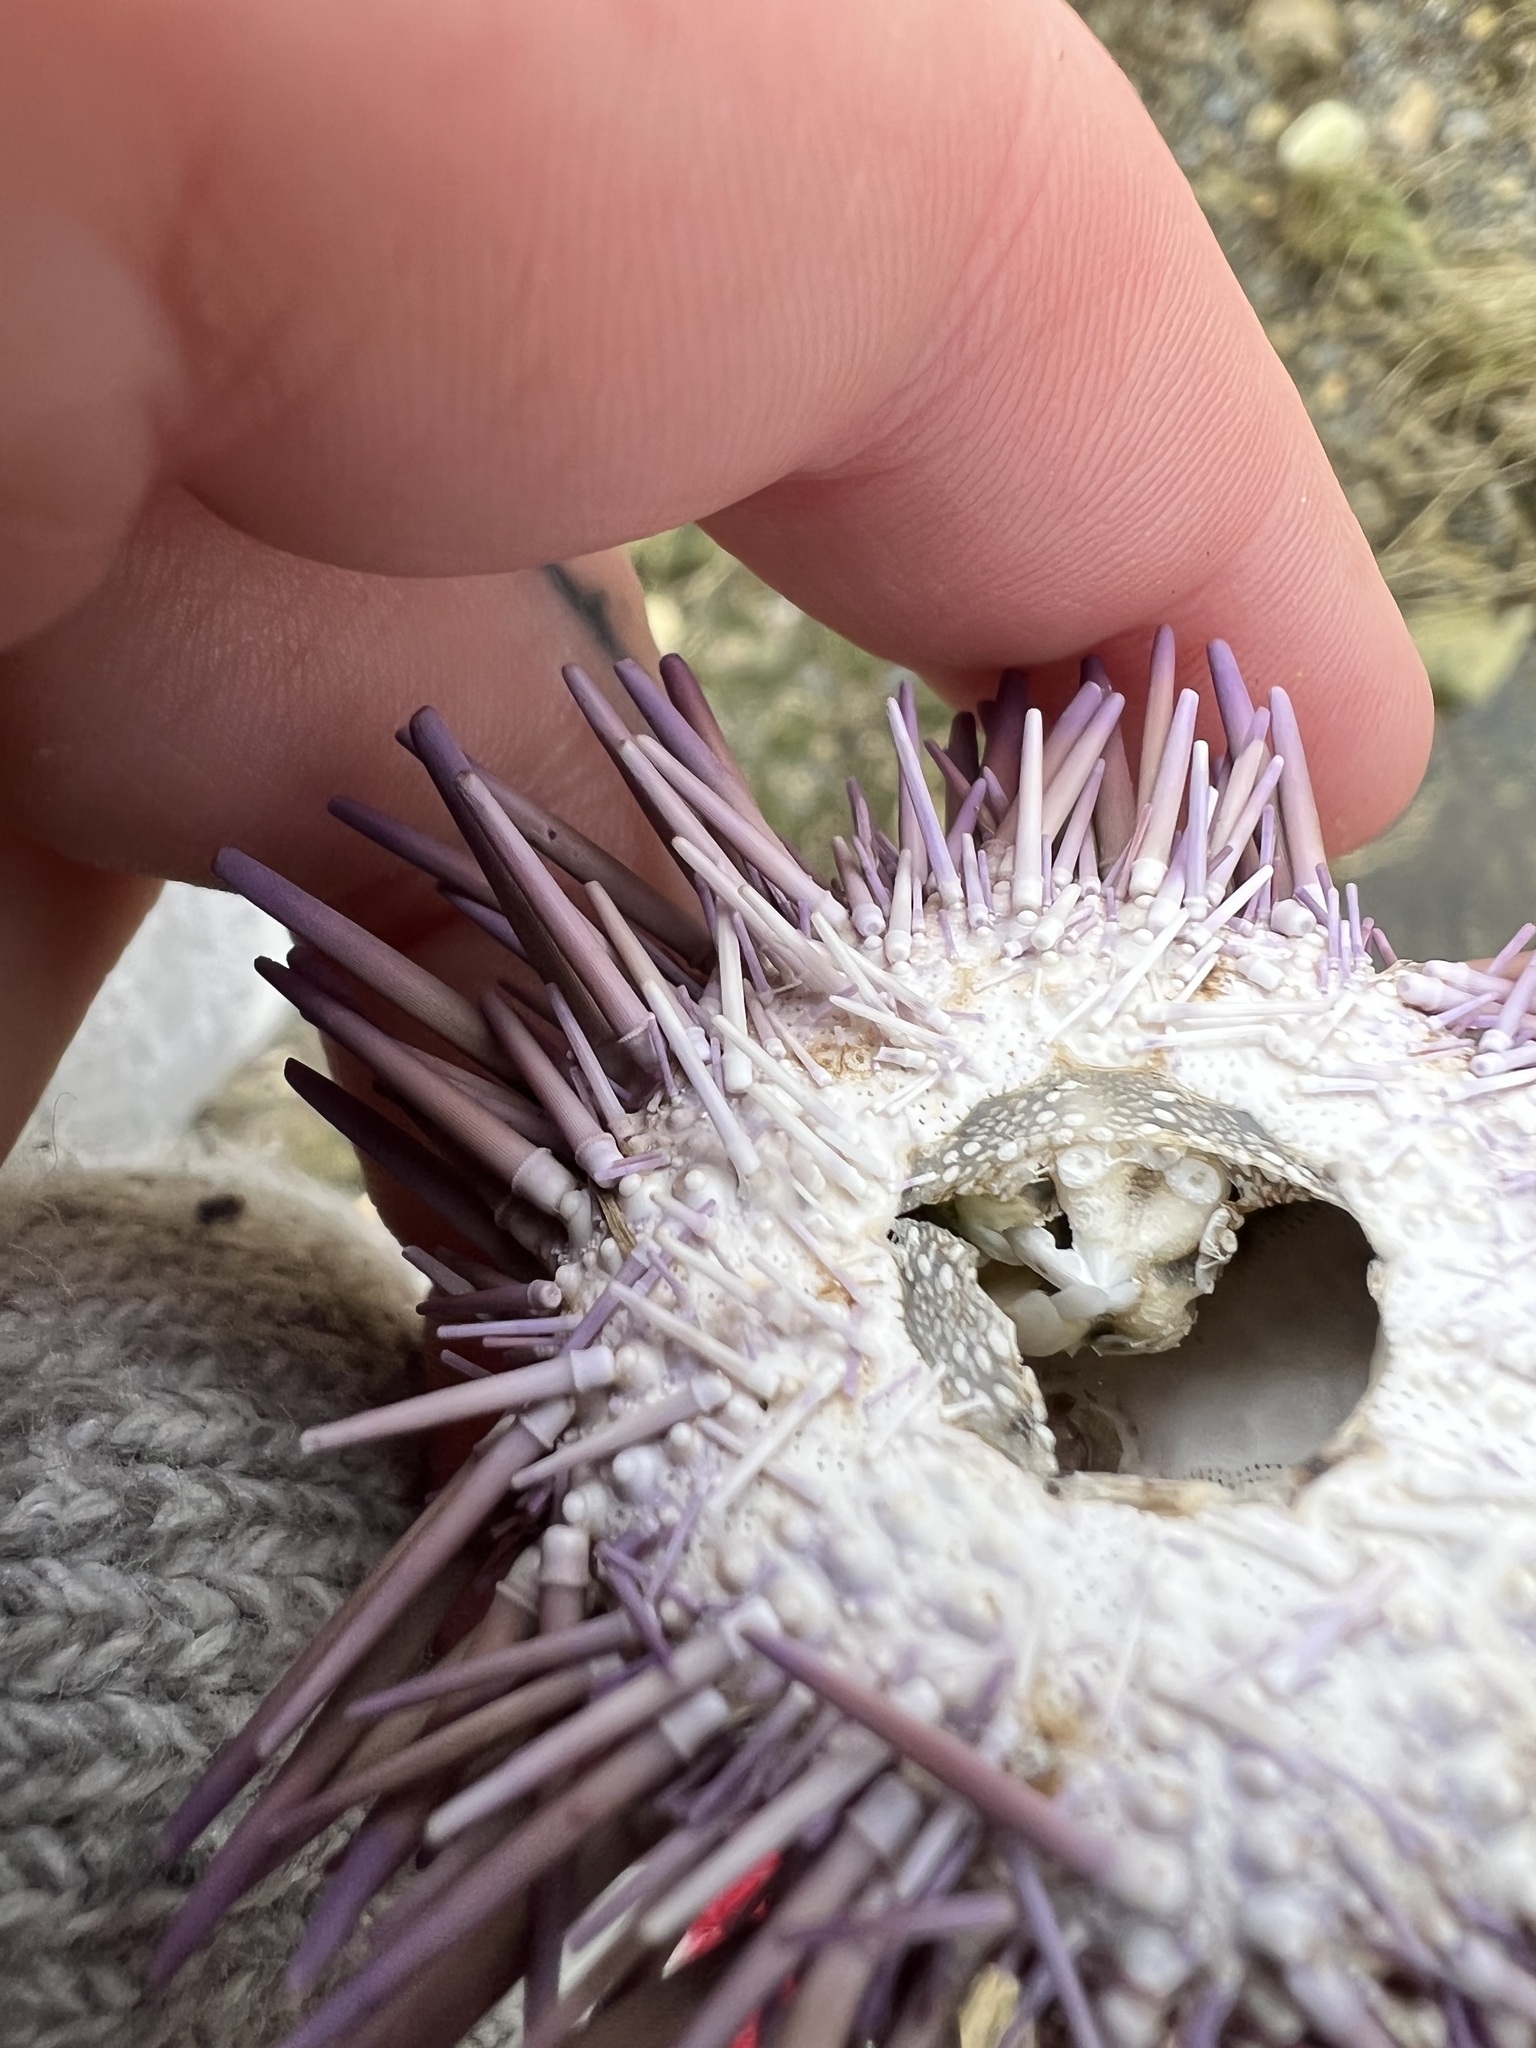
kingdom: Animalia
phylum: Echinodermata
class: Echinoidea
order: Camarodonta
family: Strongylocentrotidae
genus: Strongylocentrotus
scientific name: Strongylocentrotus purpuratus
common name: Purple sea urchin
